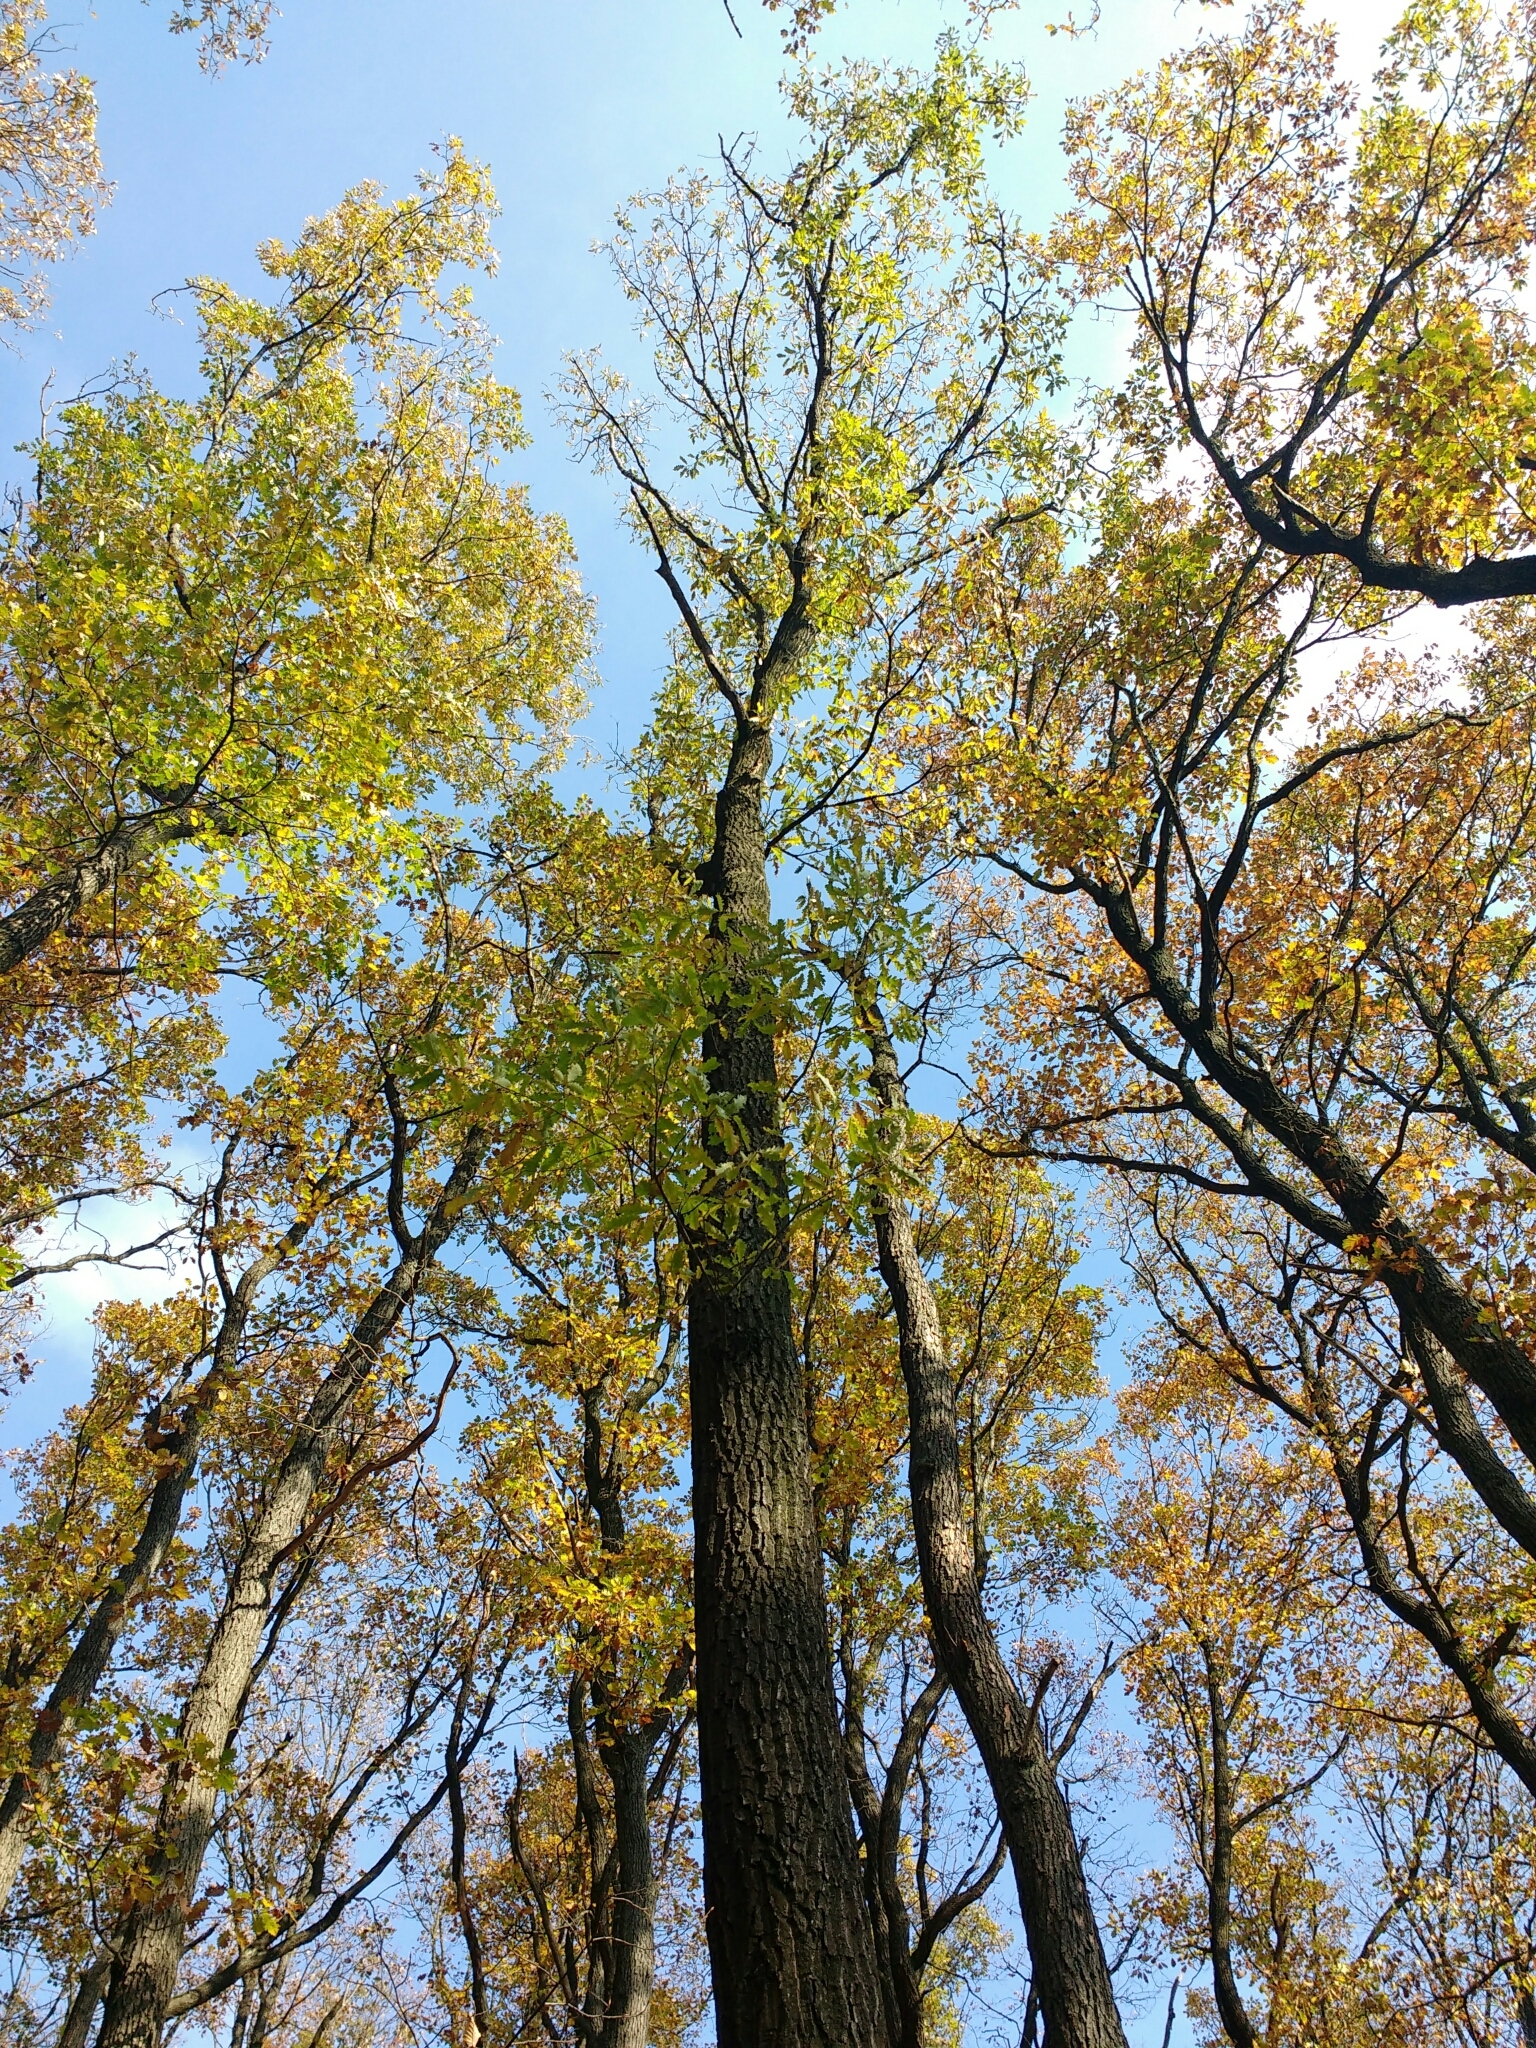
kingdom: Plantae
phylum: Tracheophyta
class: Magnoliopsida
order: Fagales
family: Fagaceae
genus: Quercus
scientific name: Quercus cerris
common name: Turkey oak
